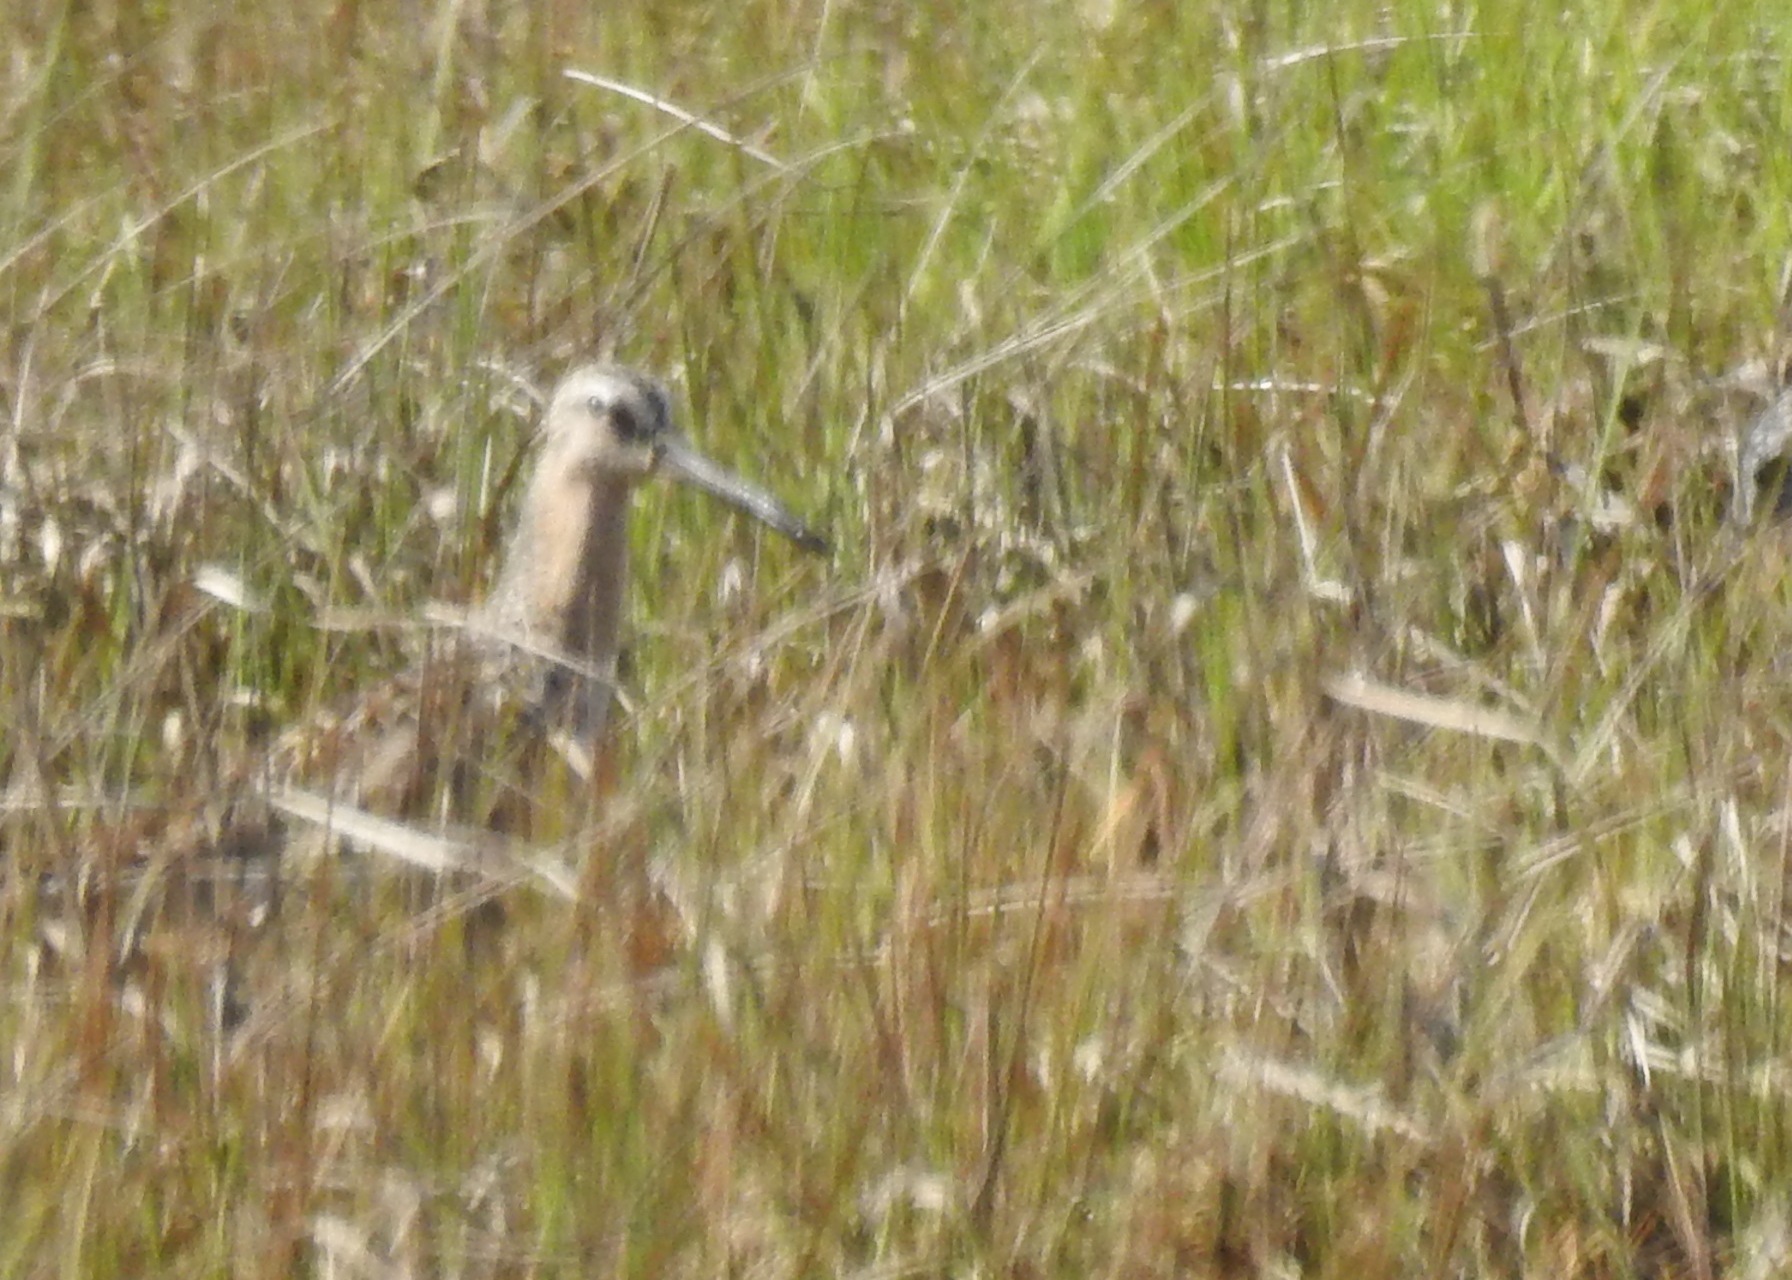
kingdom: Animalia
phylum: Chordata
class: Aves
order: Charadriiformes
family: Scolopacidae
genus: Limnodromus
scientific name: Limnodromus griseus
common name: Short-billed dowitcher
